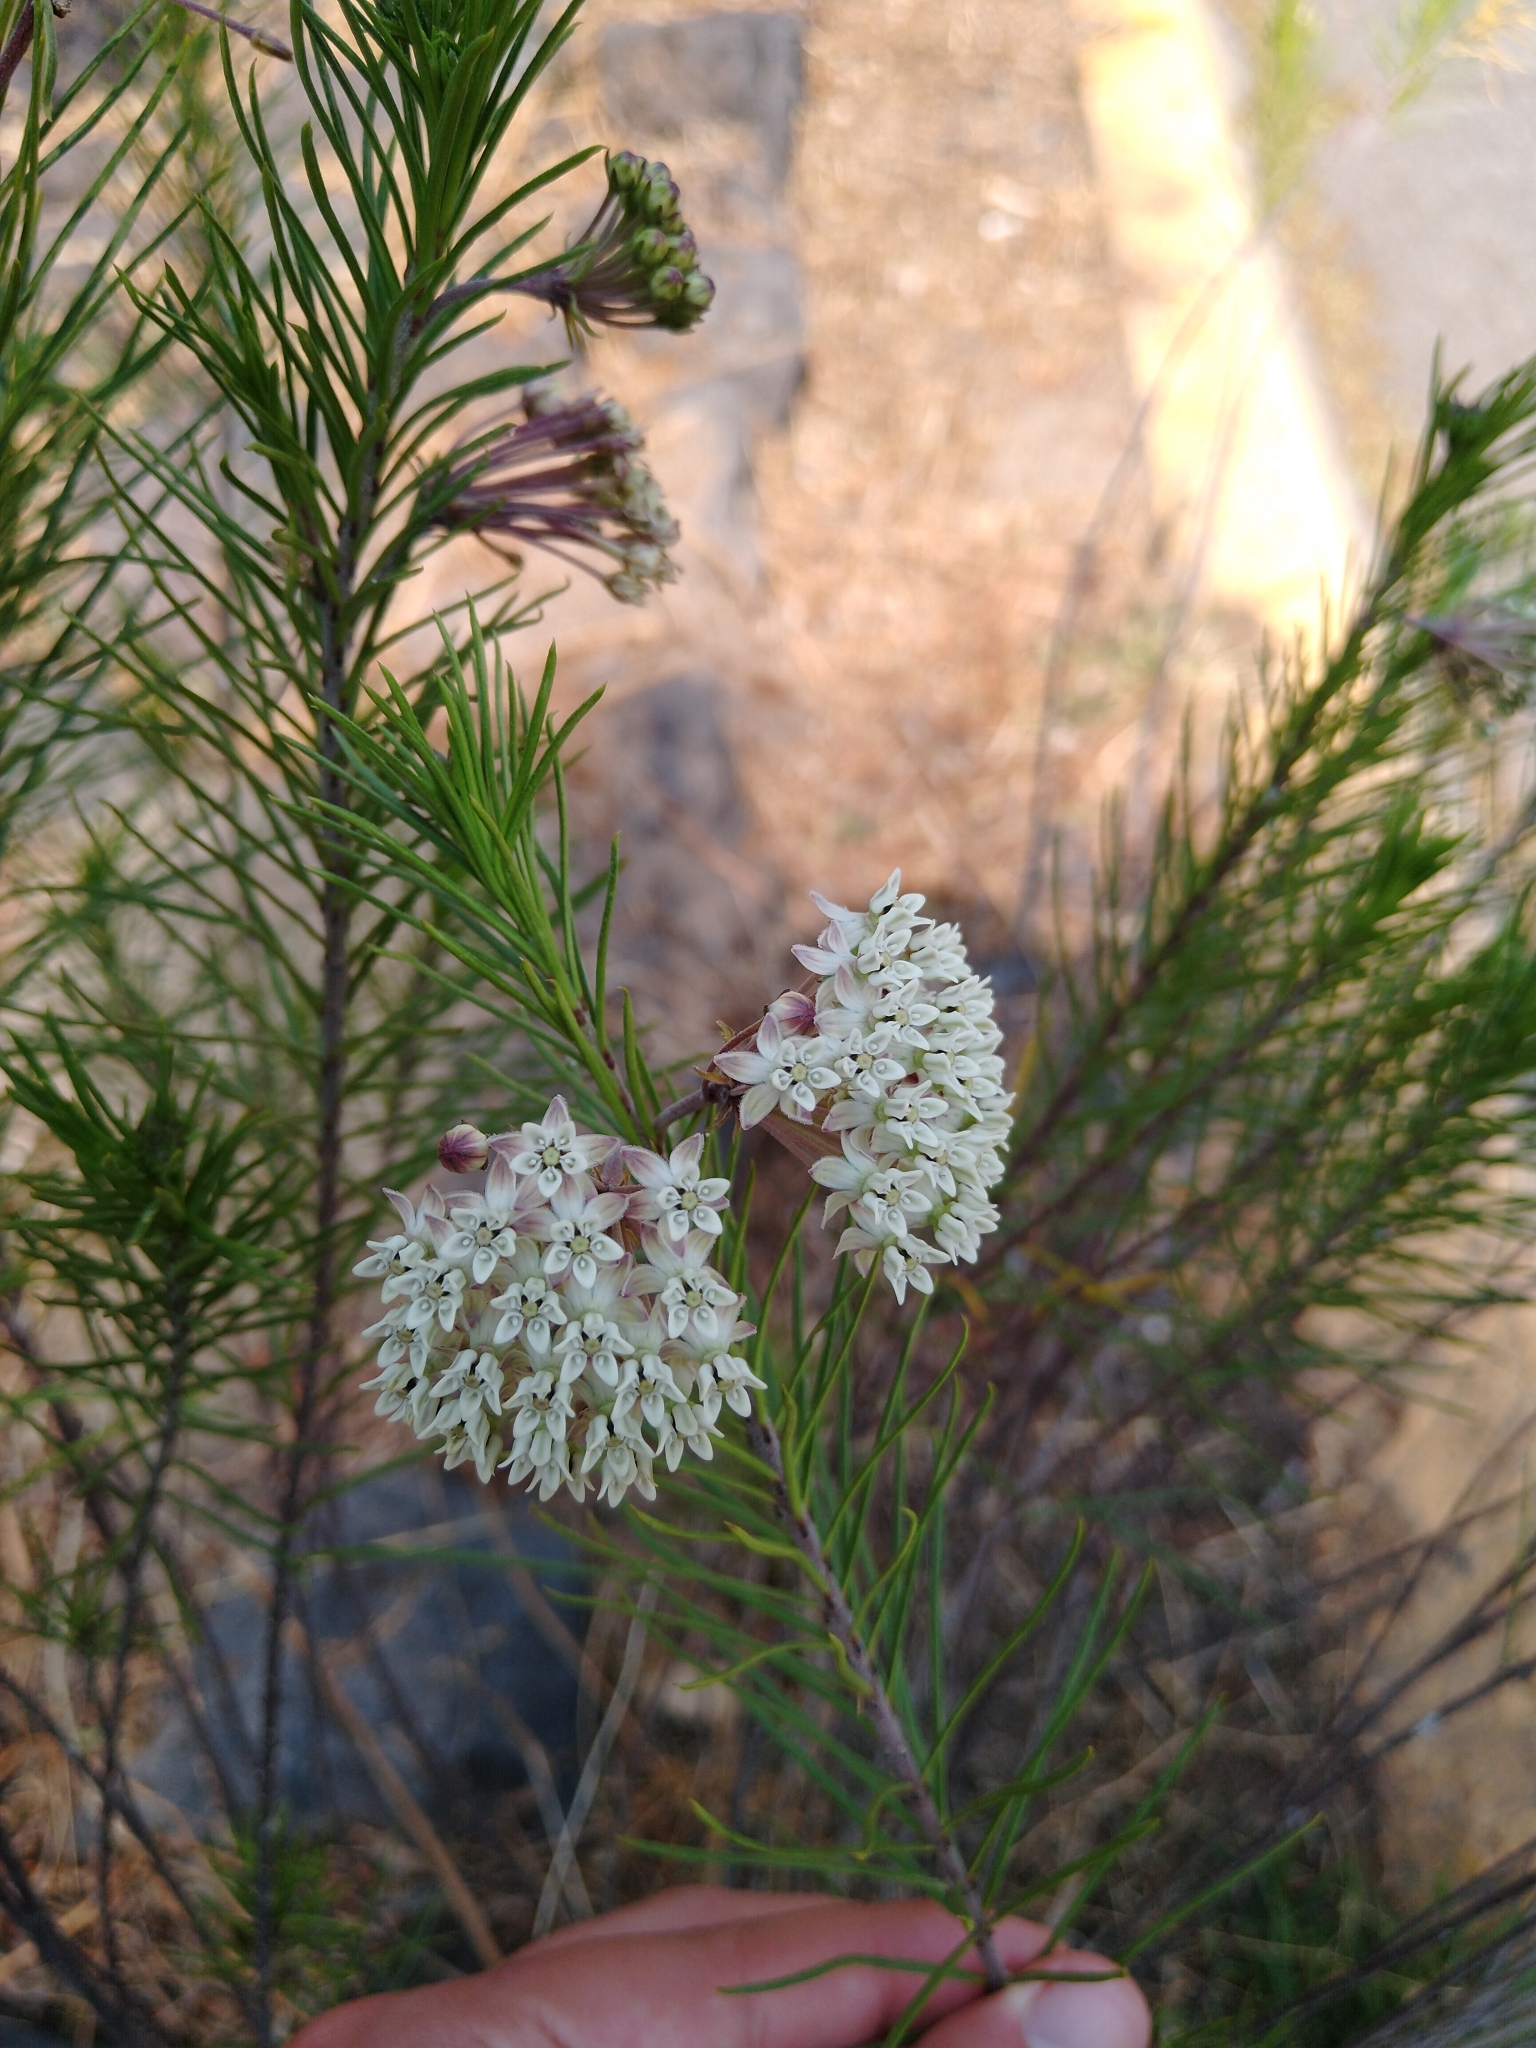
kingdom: Plantae
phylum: Tracheophyta
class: Magnoliopsida
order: Gentianales
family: Apocynaceae
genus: Asclepias
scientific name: Asclepias linaria
